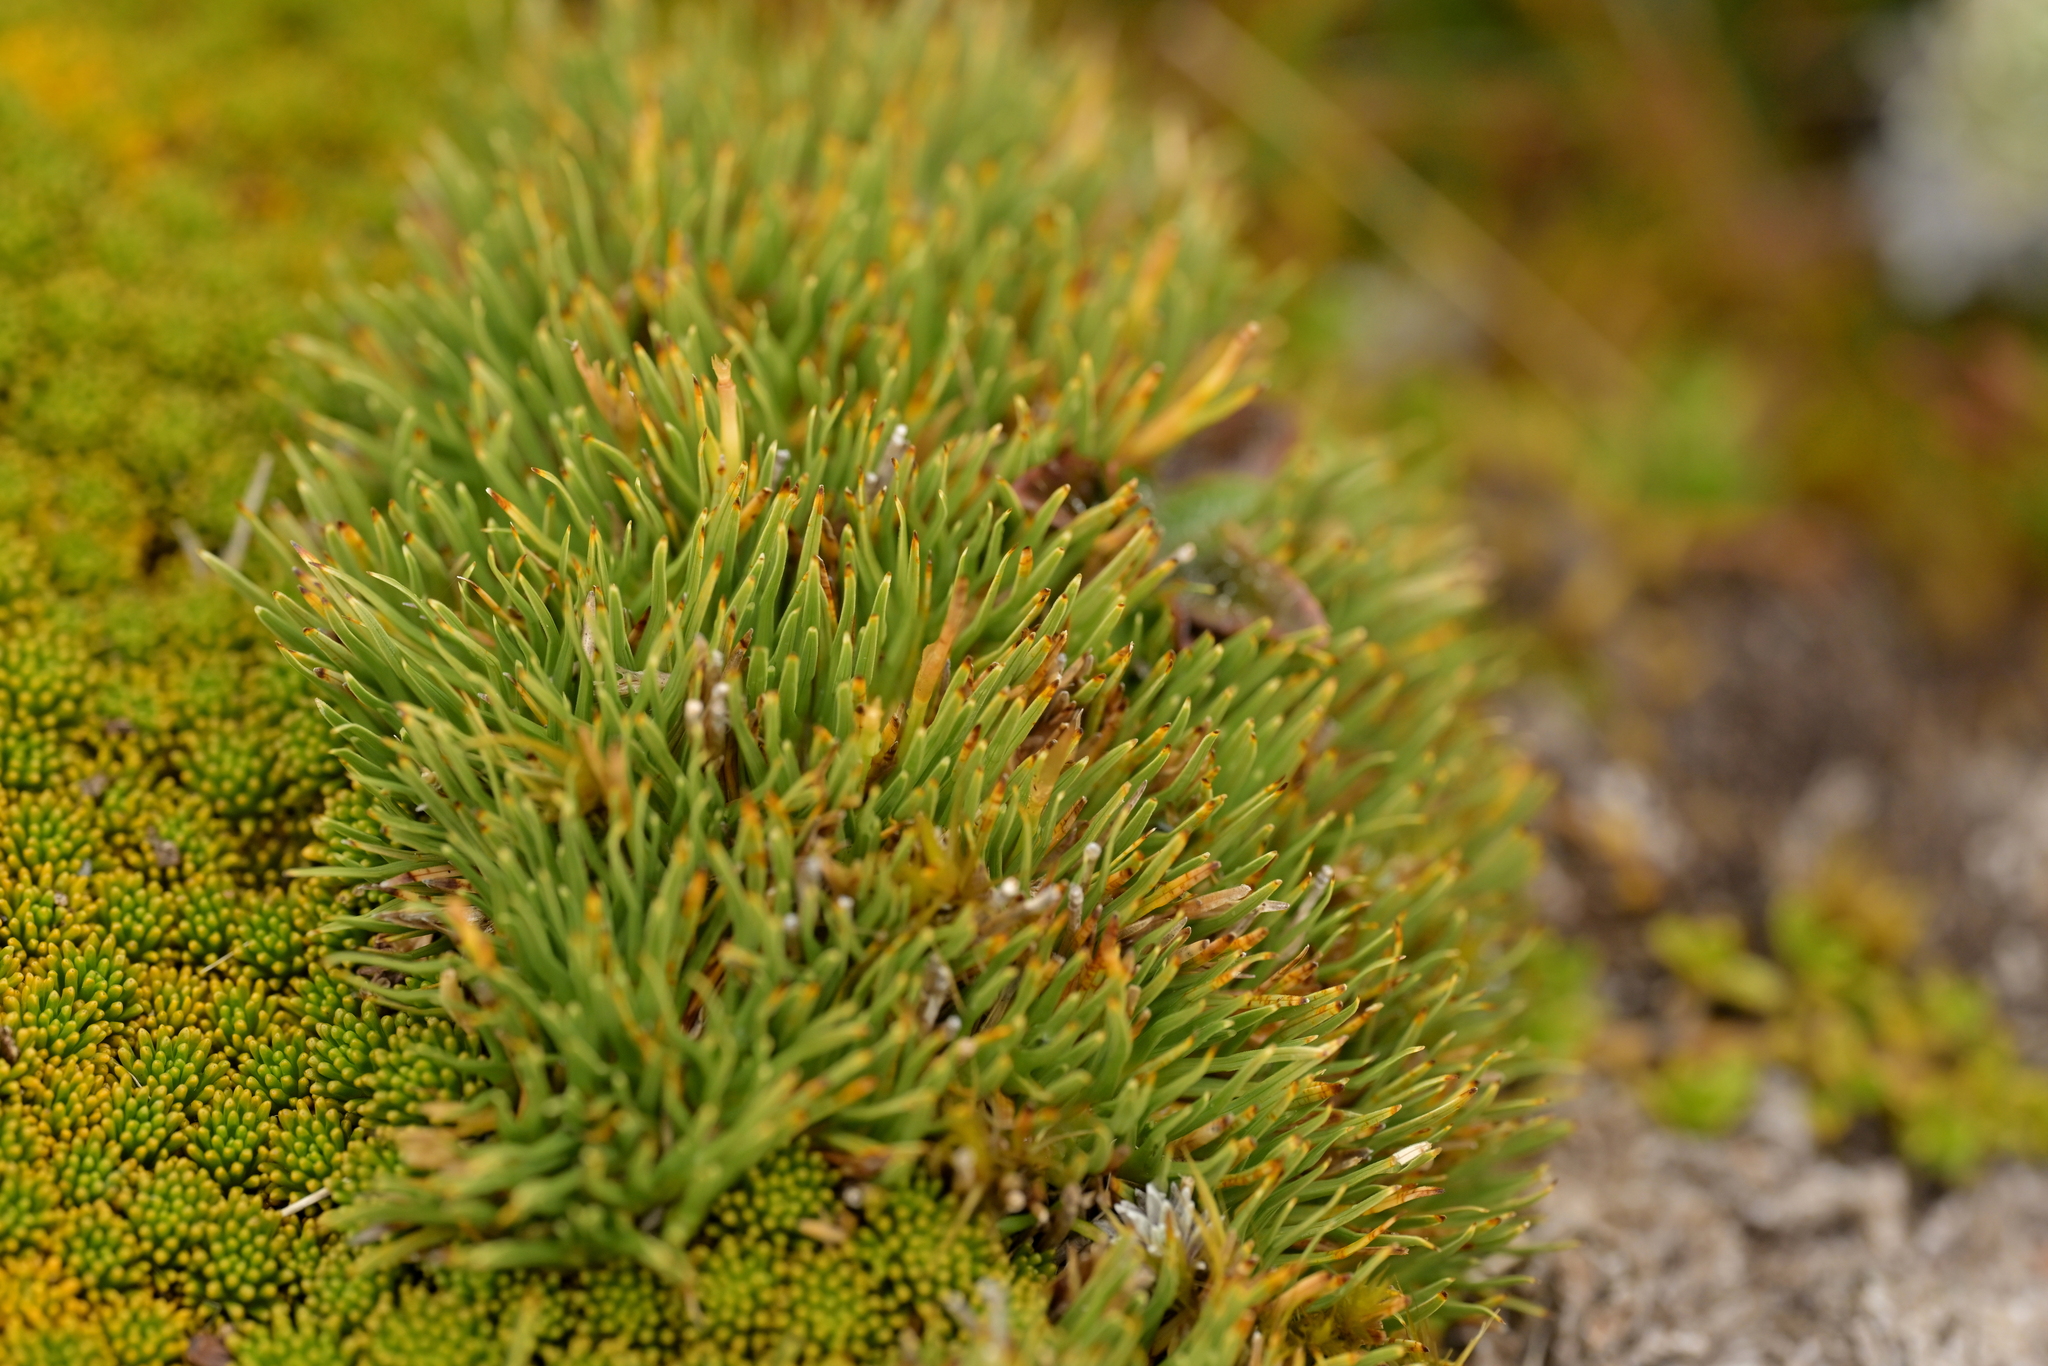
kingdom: Plantae
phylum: Tracheophyta
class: Liliopsida
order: Poales
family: Cyperaceae
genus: Oreobolus
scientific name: Oreobolus pectinatus
